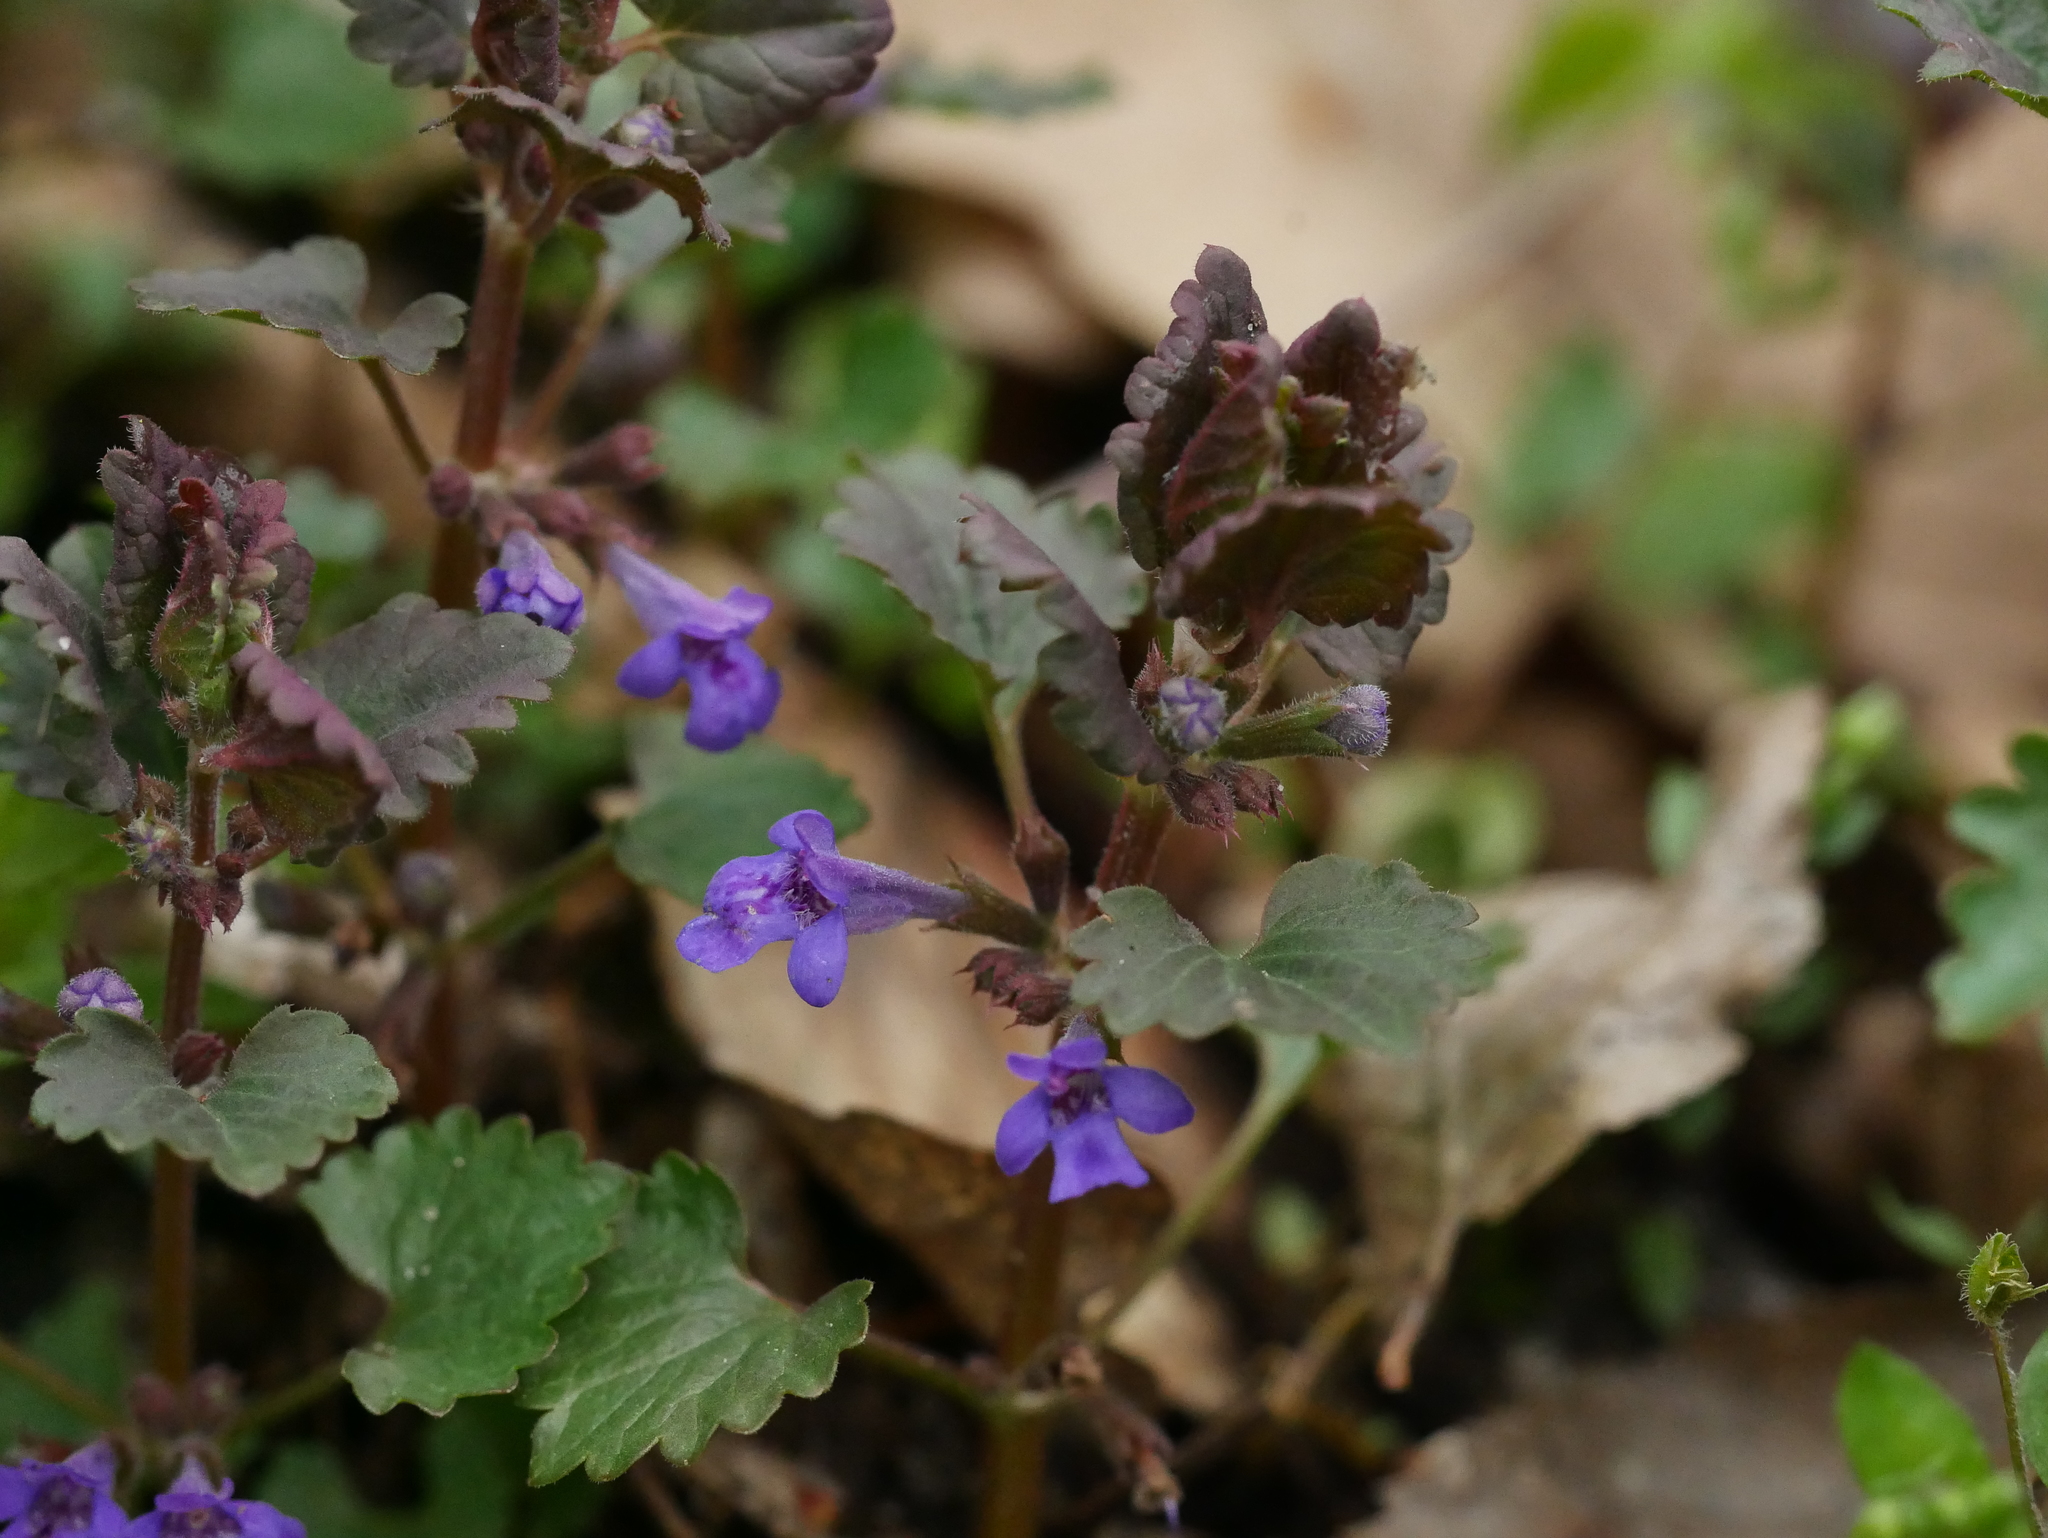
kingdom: Plantae
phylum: Tracheophyta
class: Magnoliopsida
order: Lamiales
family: Lamiaceae
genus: Glechoma
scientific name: Glechoma hederacea
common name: Ground ivy
